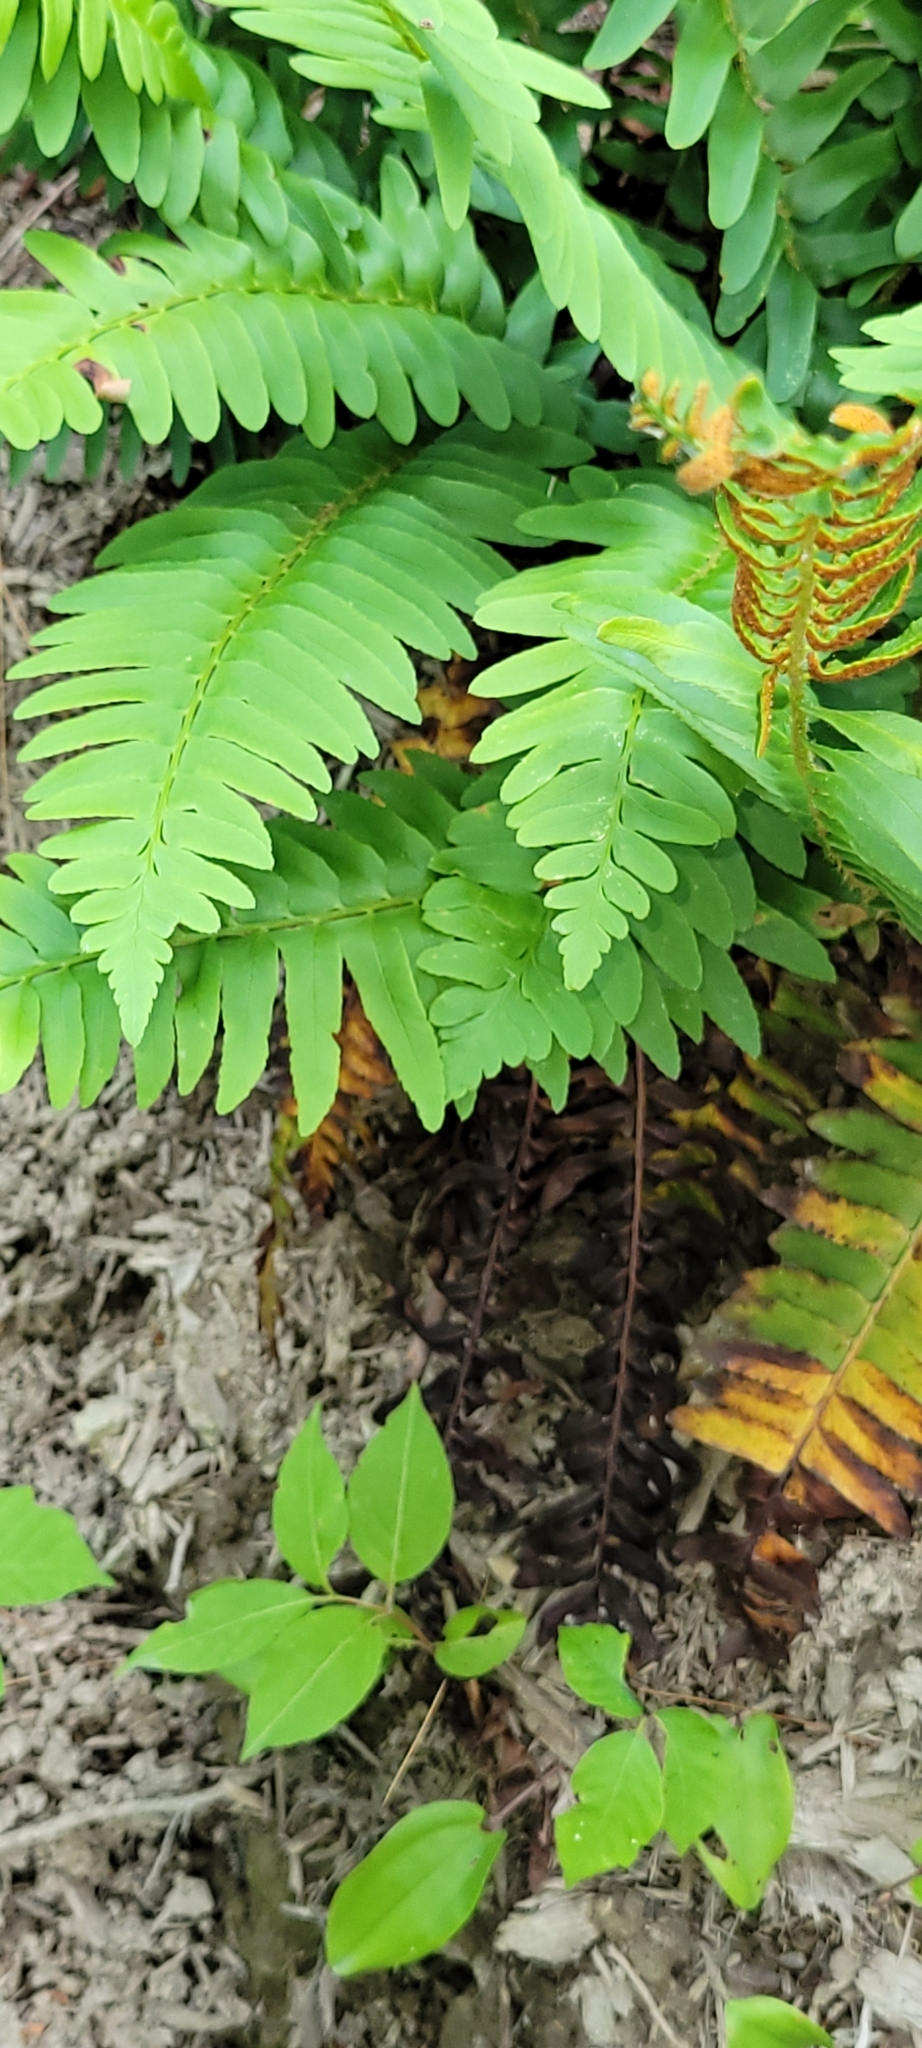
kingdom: Plantae
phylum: Tracheophyta
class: Polypodiopsida
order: Polypodiales
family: Dryopteridaceae
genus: Polystichum
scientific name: Polystichum acrostichoides
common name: Christmas fern
